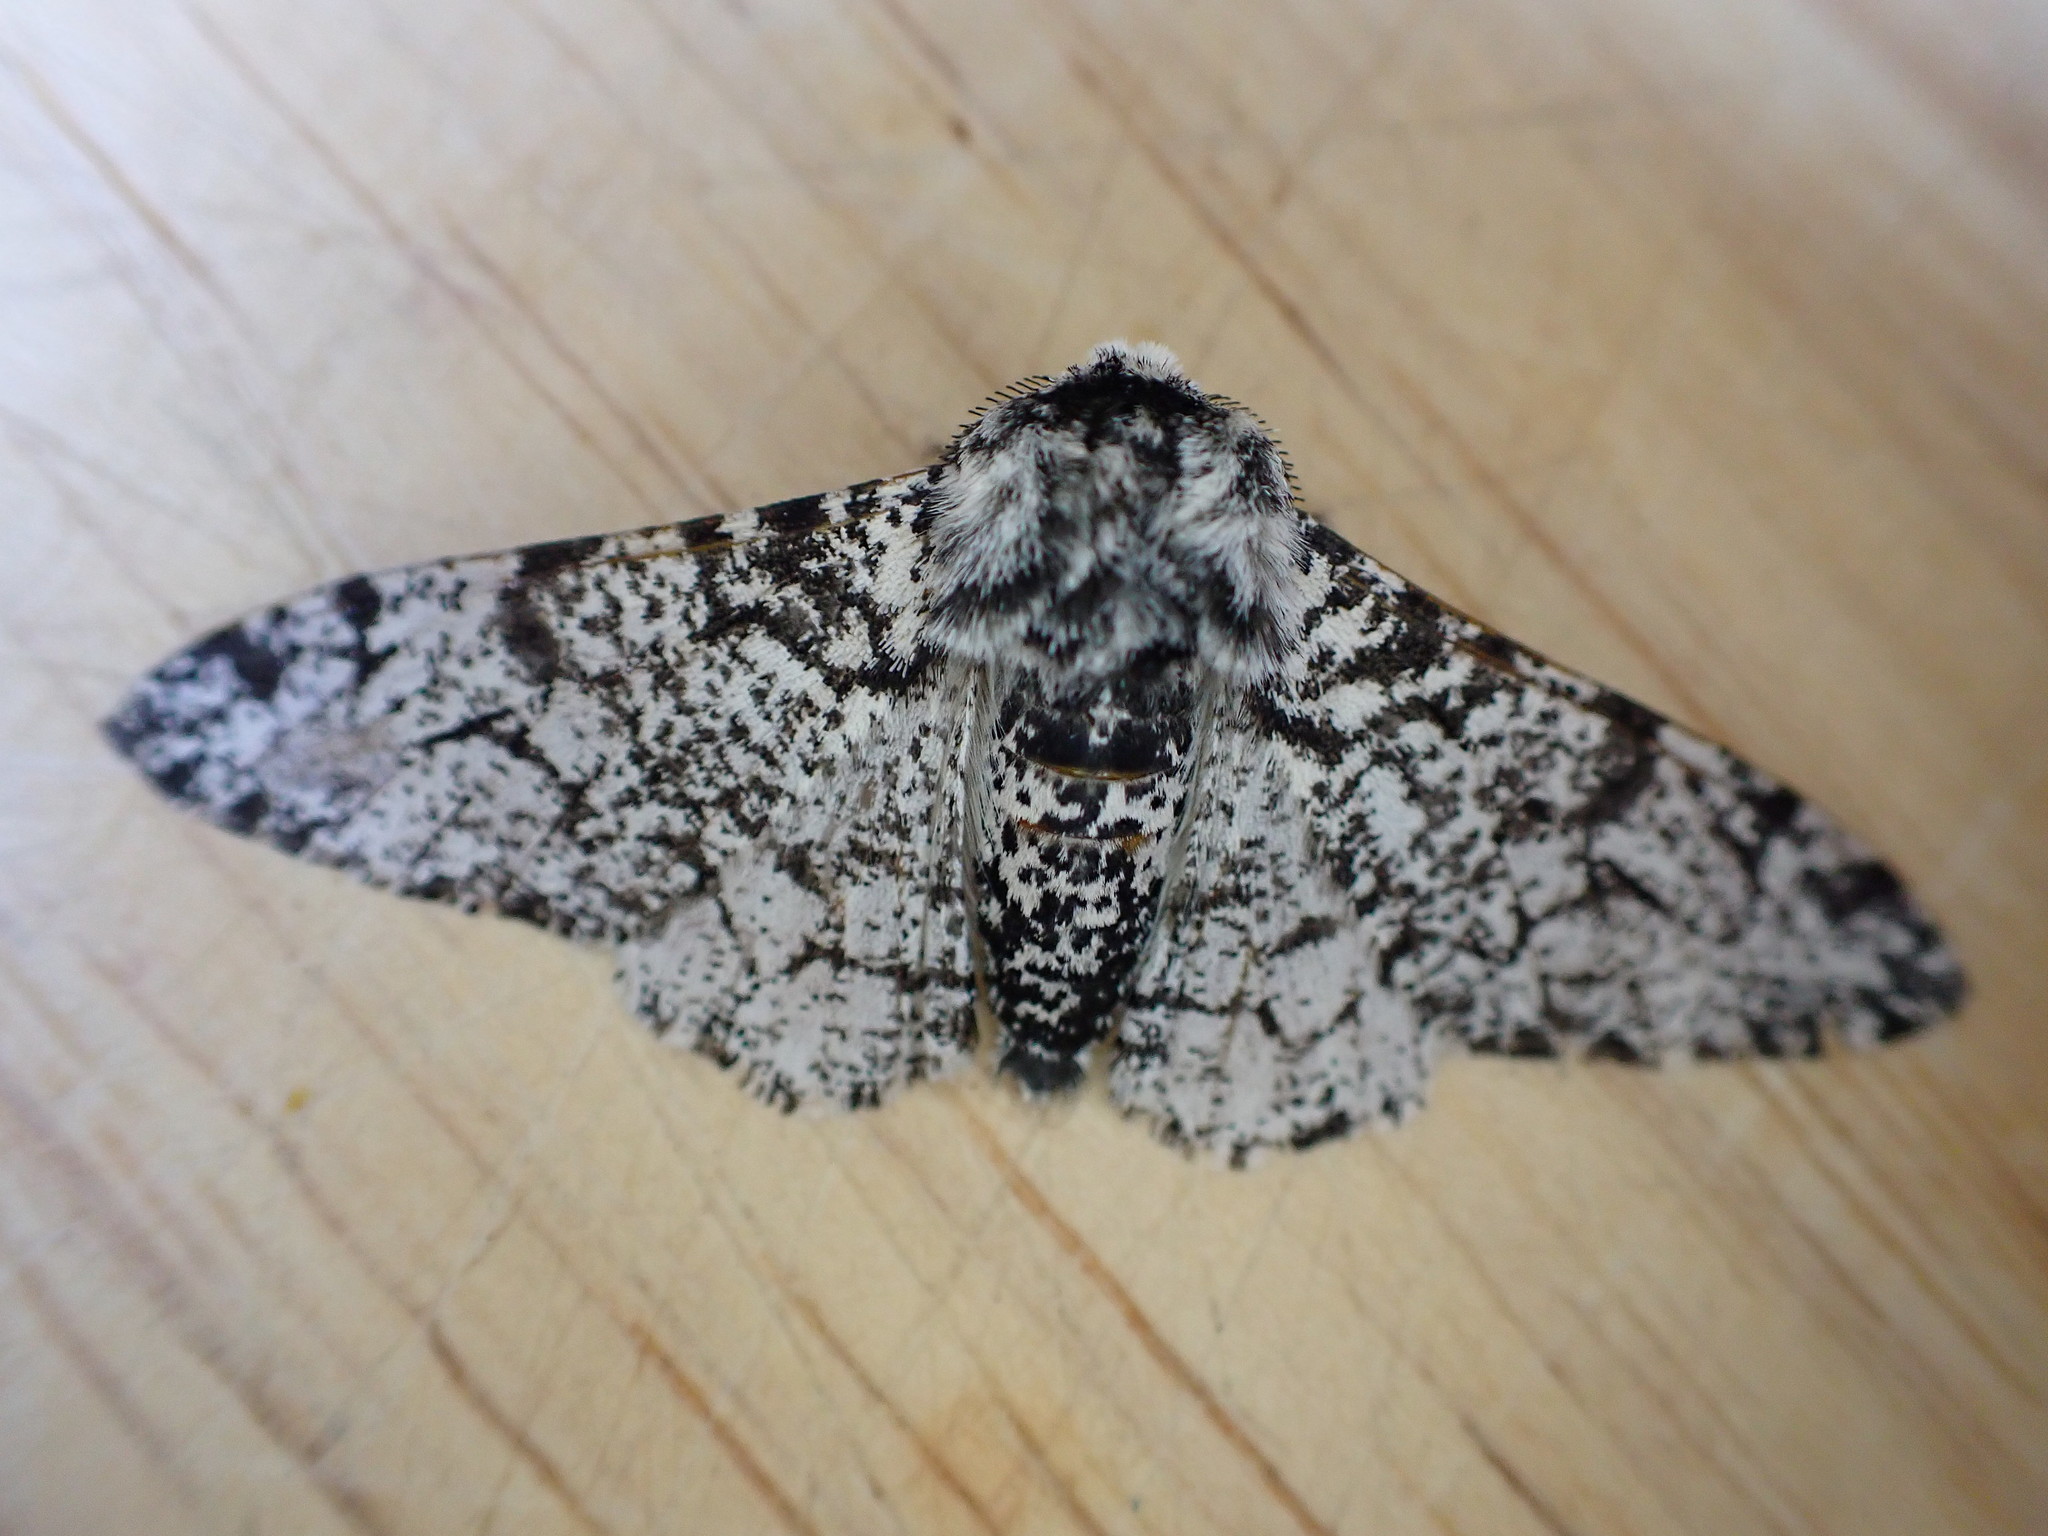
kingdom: Animalia
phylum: Arthropoda
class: Insecta
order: Lepidoptera
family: Geometridae
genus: Biston
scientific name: Biston betularia
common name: Peppered moth
